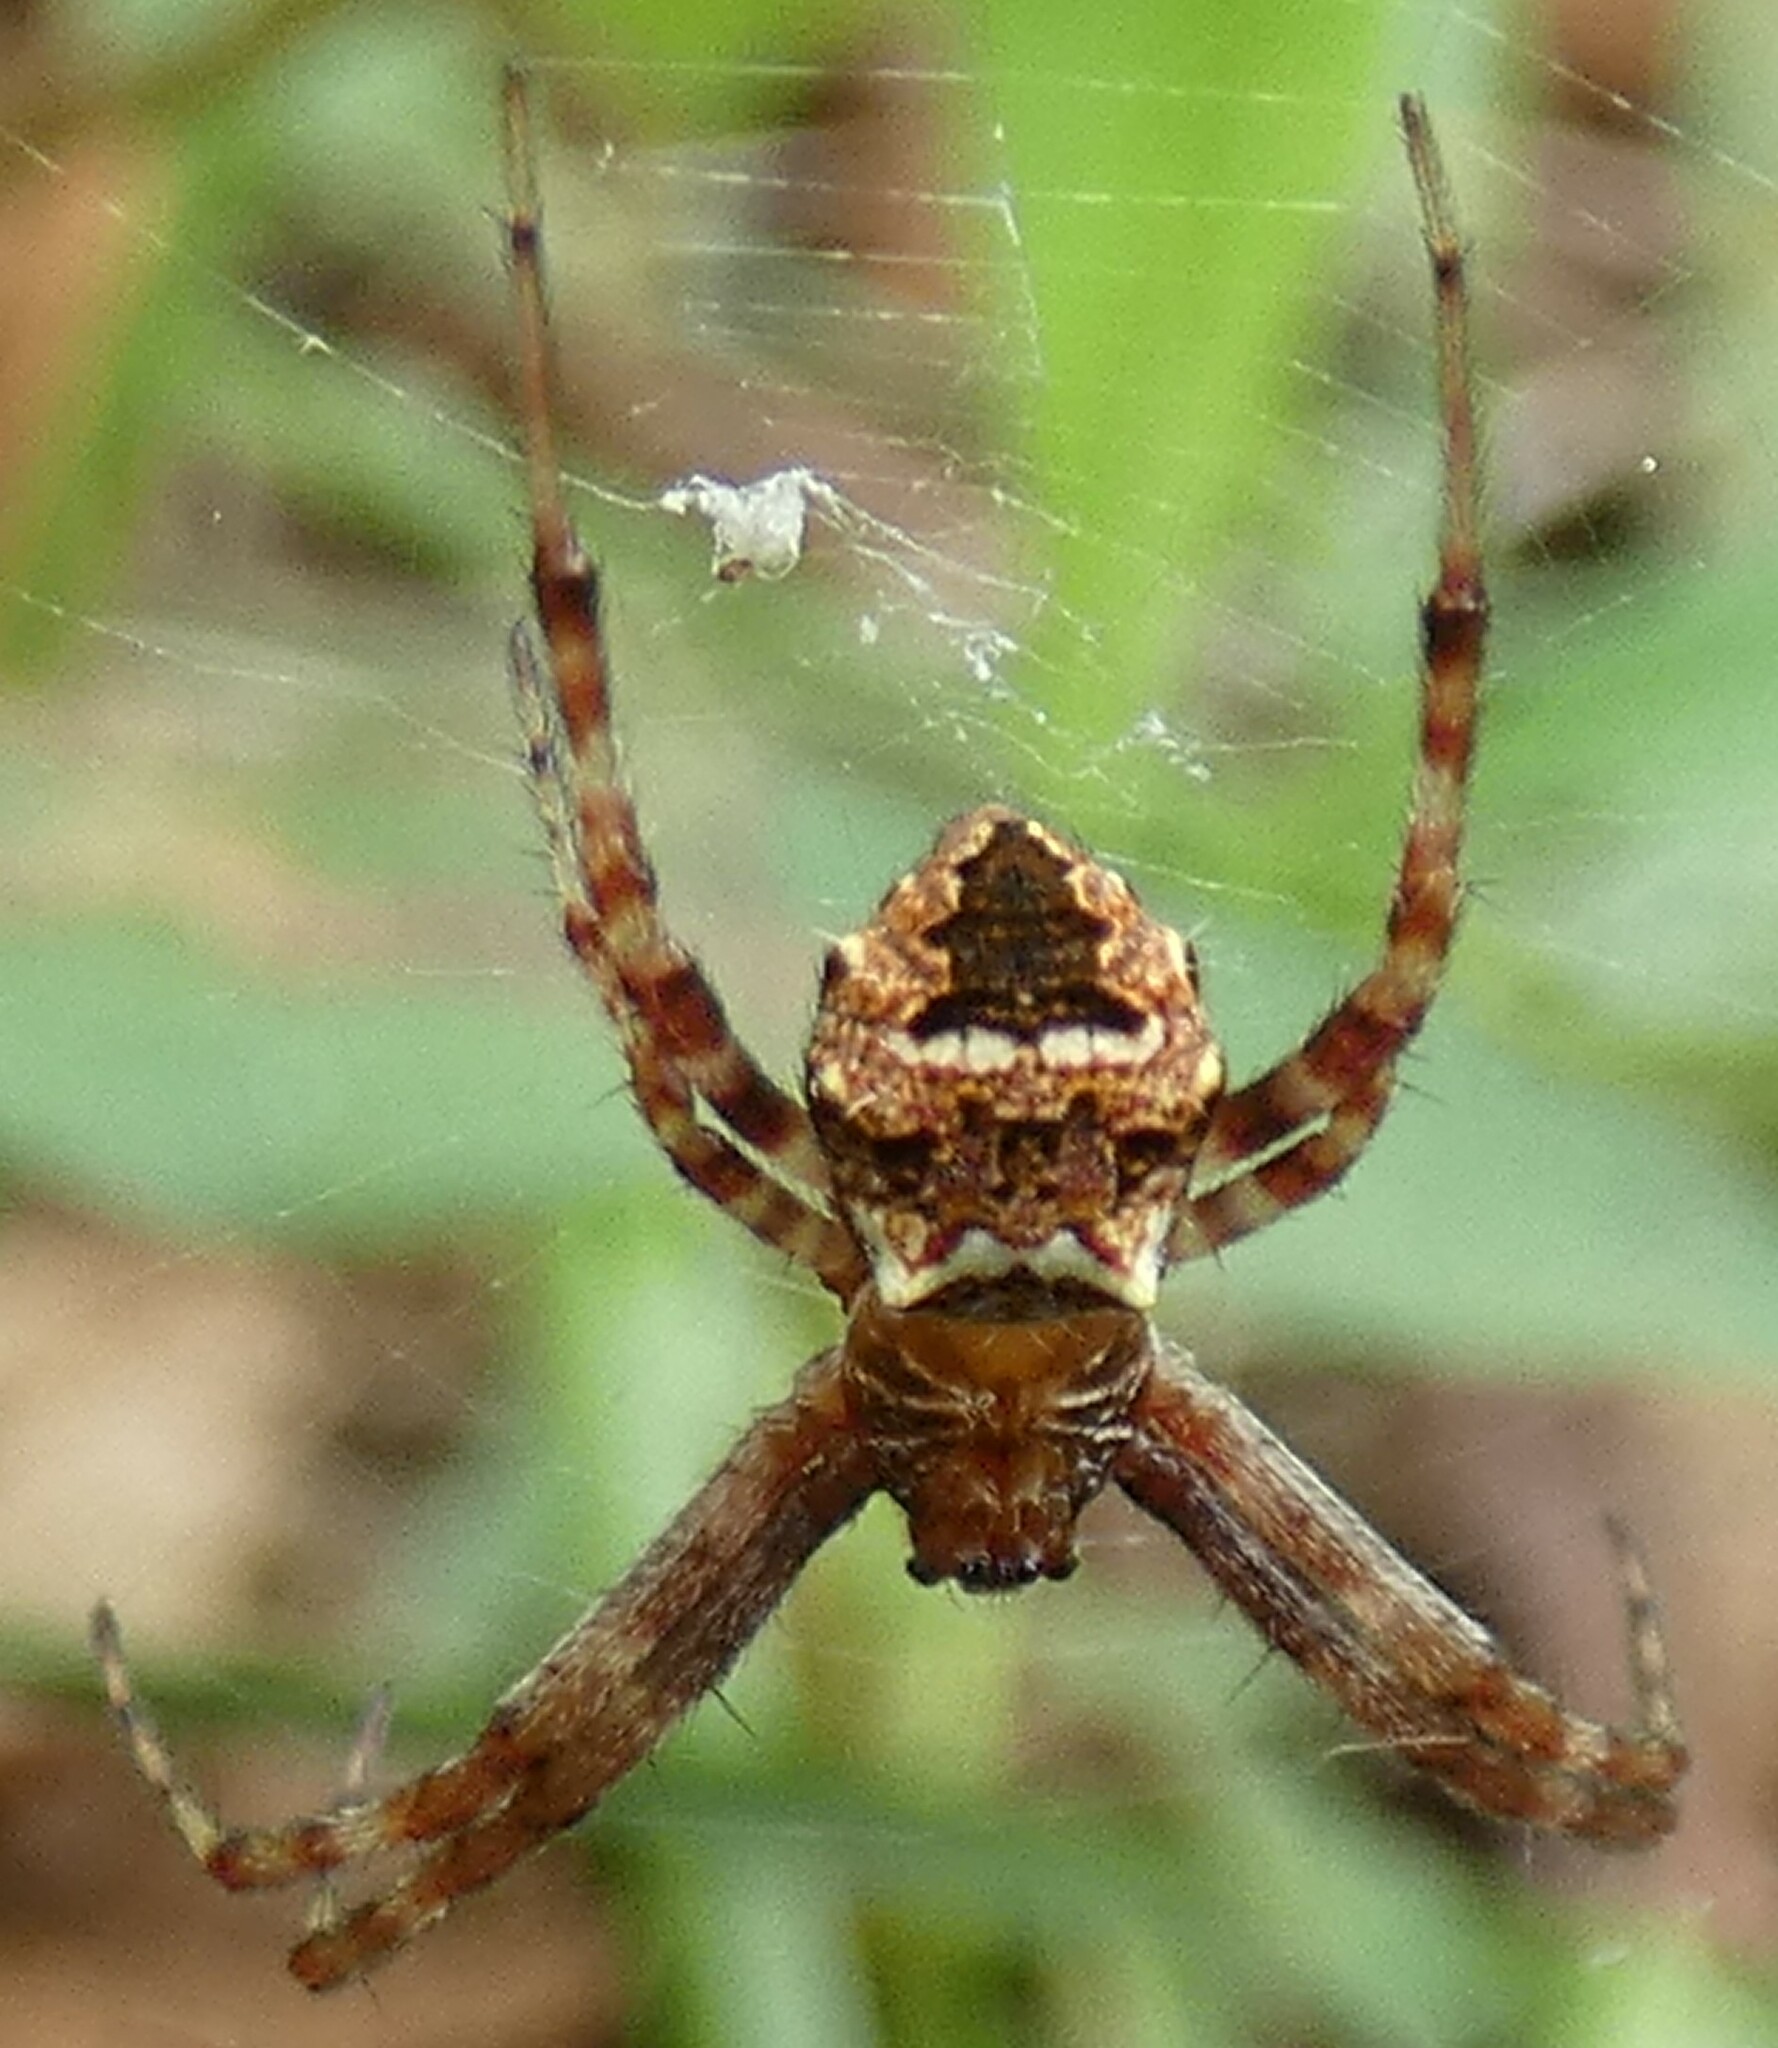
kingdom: Animalia
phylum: Arthropoda
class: Arachnida
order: Araneae
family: Araneidae
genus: Gea
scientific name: Gea heptagon
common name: Orb weavers
